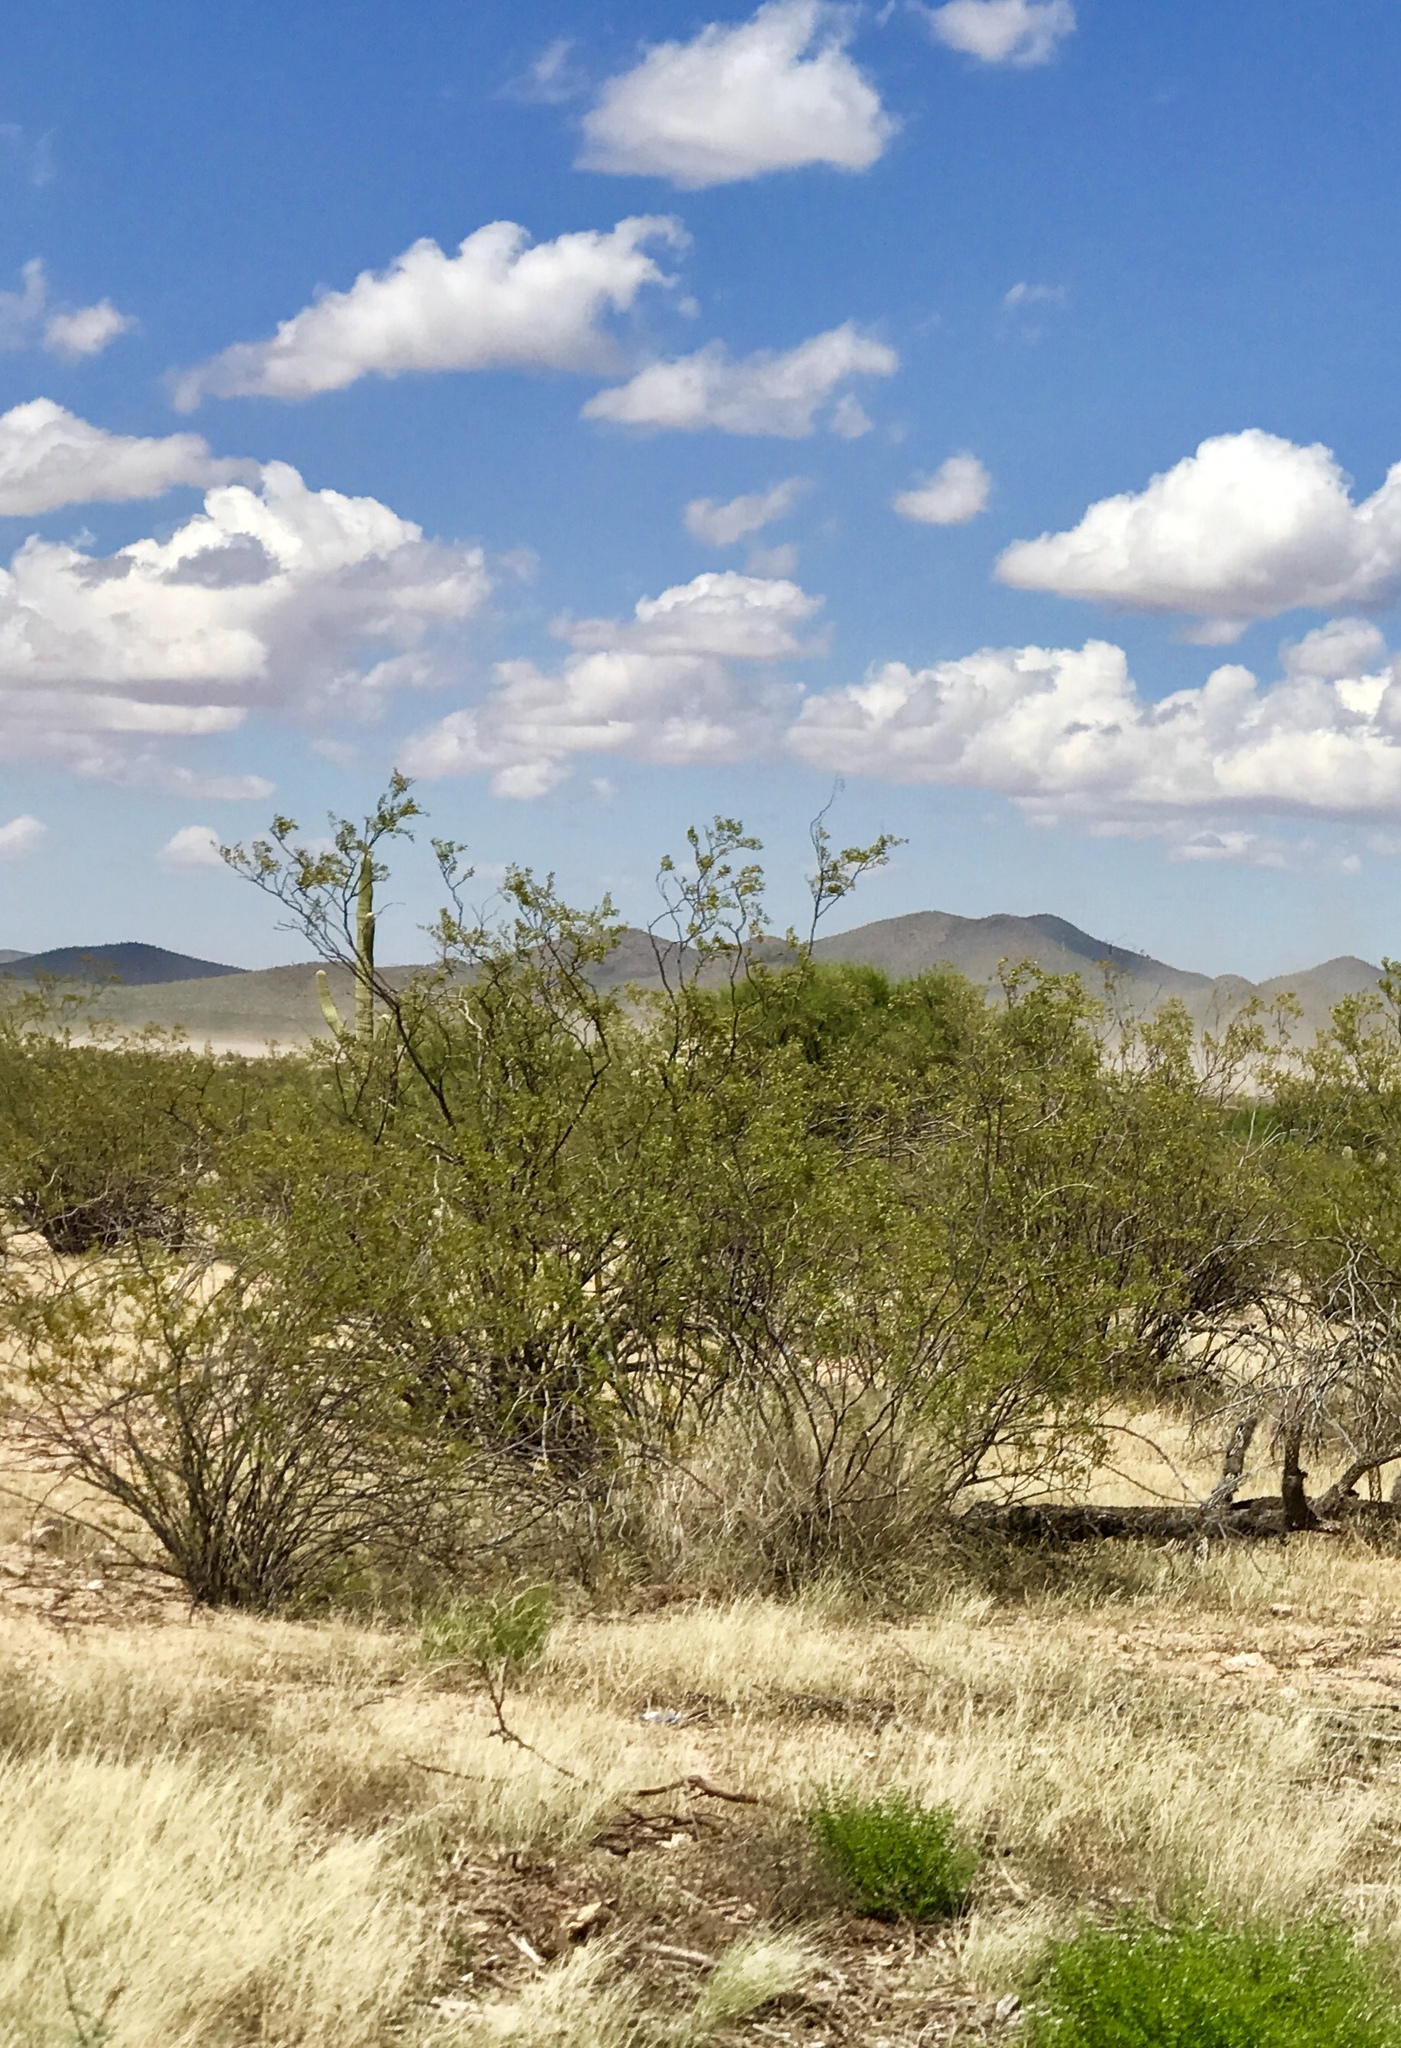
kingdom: Plantae
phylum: Tracheophyta
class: Magnoliopsida
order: Zygophyllales
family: Zygophyllaceae
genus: Larrea
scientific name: Larrea tridentata
